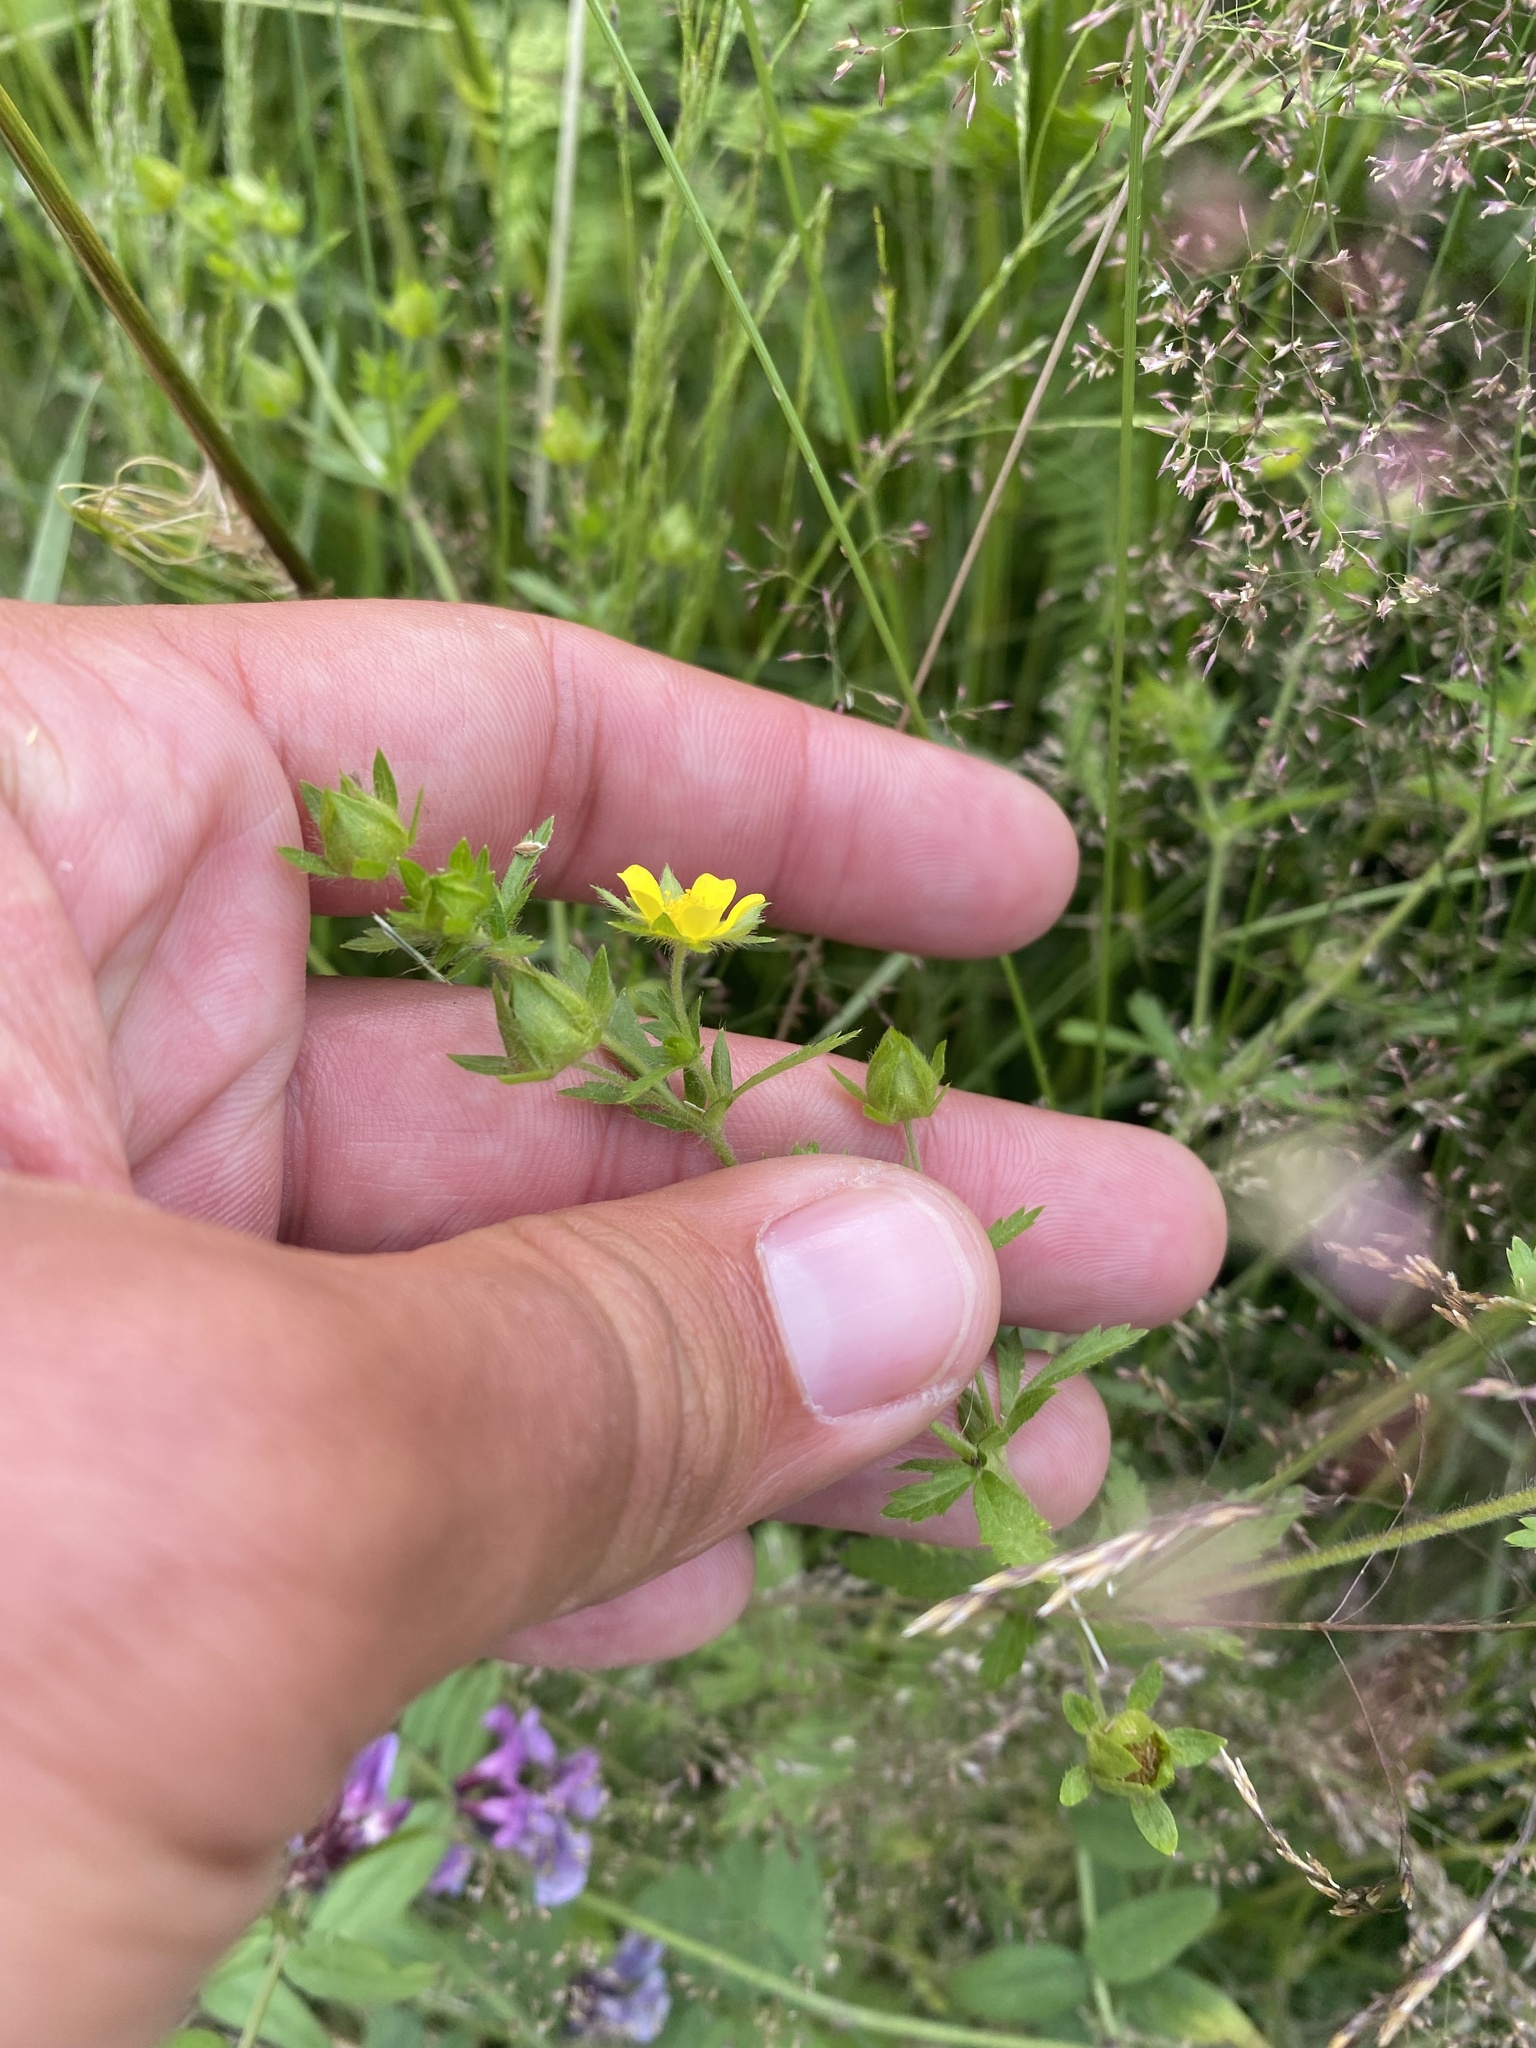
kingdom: Plantae
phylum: Tracheophyta
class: Magnoliopsida
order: Rosales
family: Rosaceae
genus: Potentilla
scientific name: Potentilla norvegica
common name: Ternate-leaved cinquefoil
